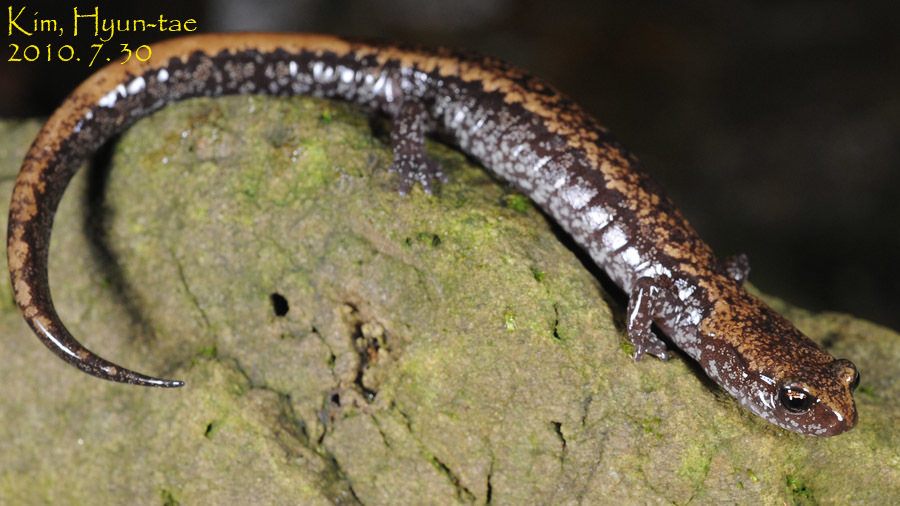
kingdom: Animalia
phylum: Chordata
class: Amphibia
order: Caudata
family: Plethodontidae
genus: Karsenia
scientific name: Karsenia koreana
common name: Korean crevice salamander
